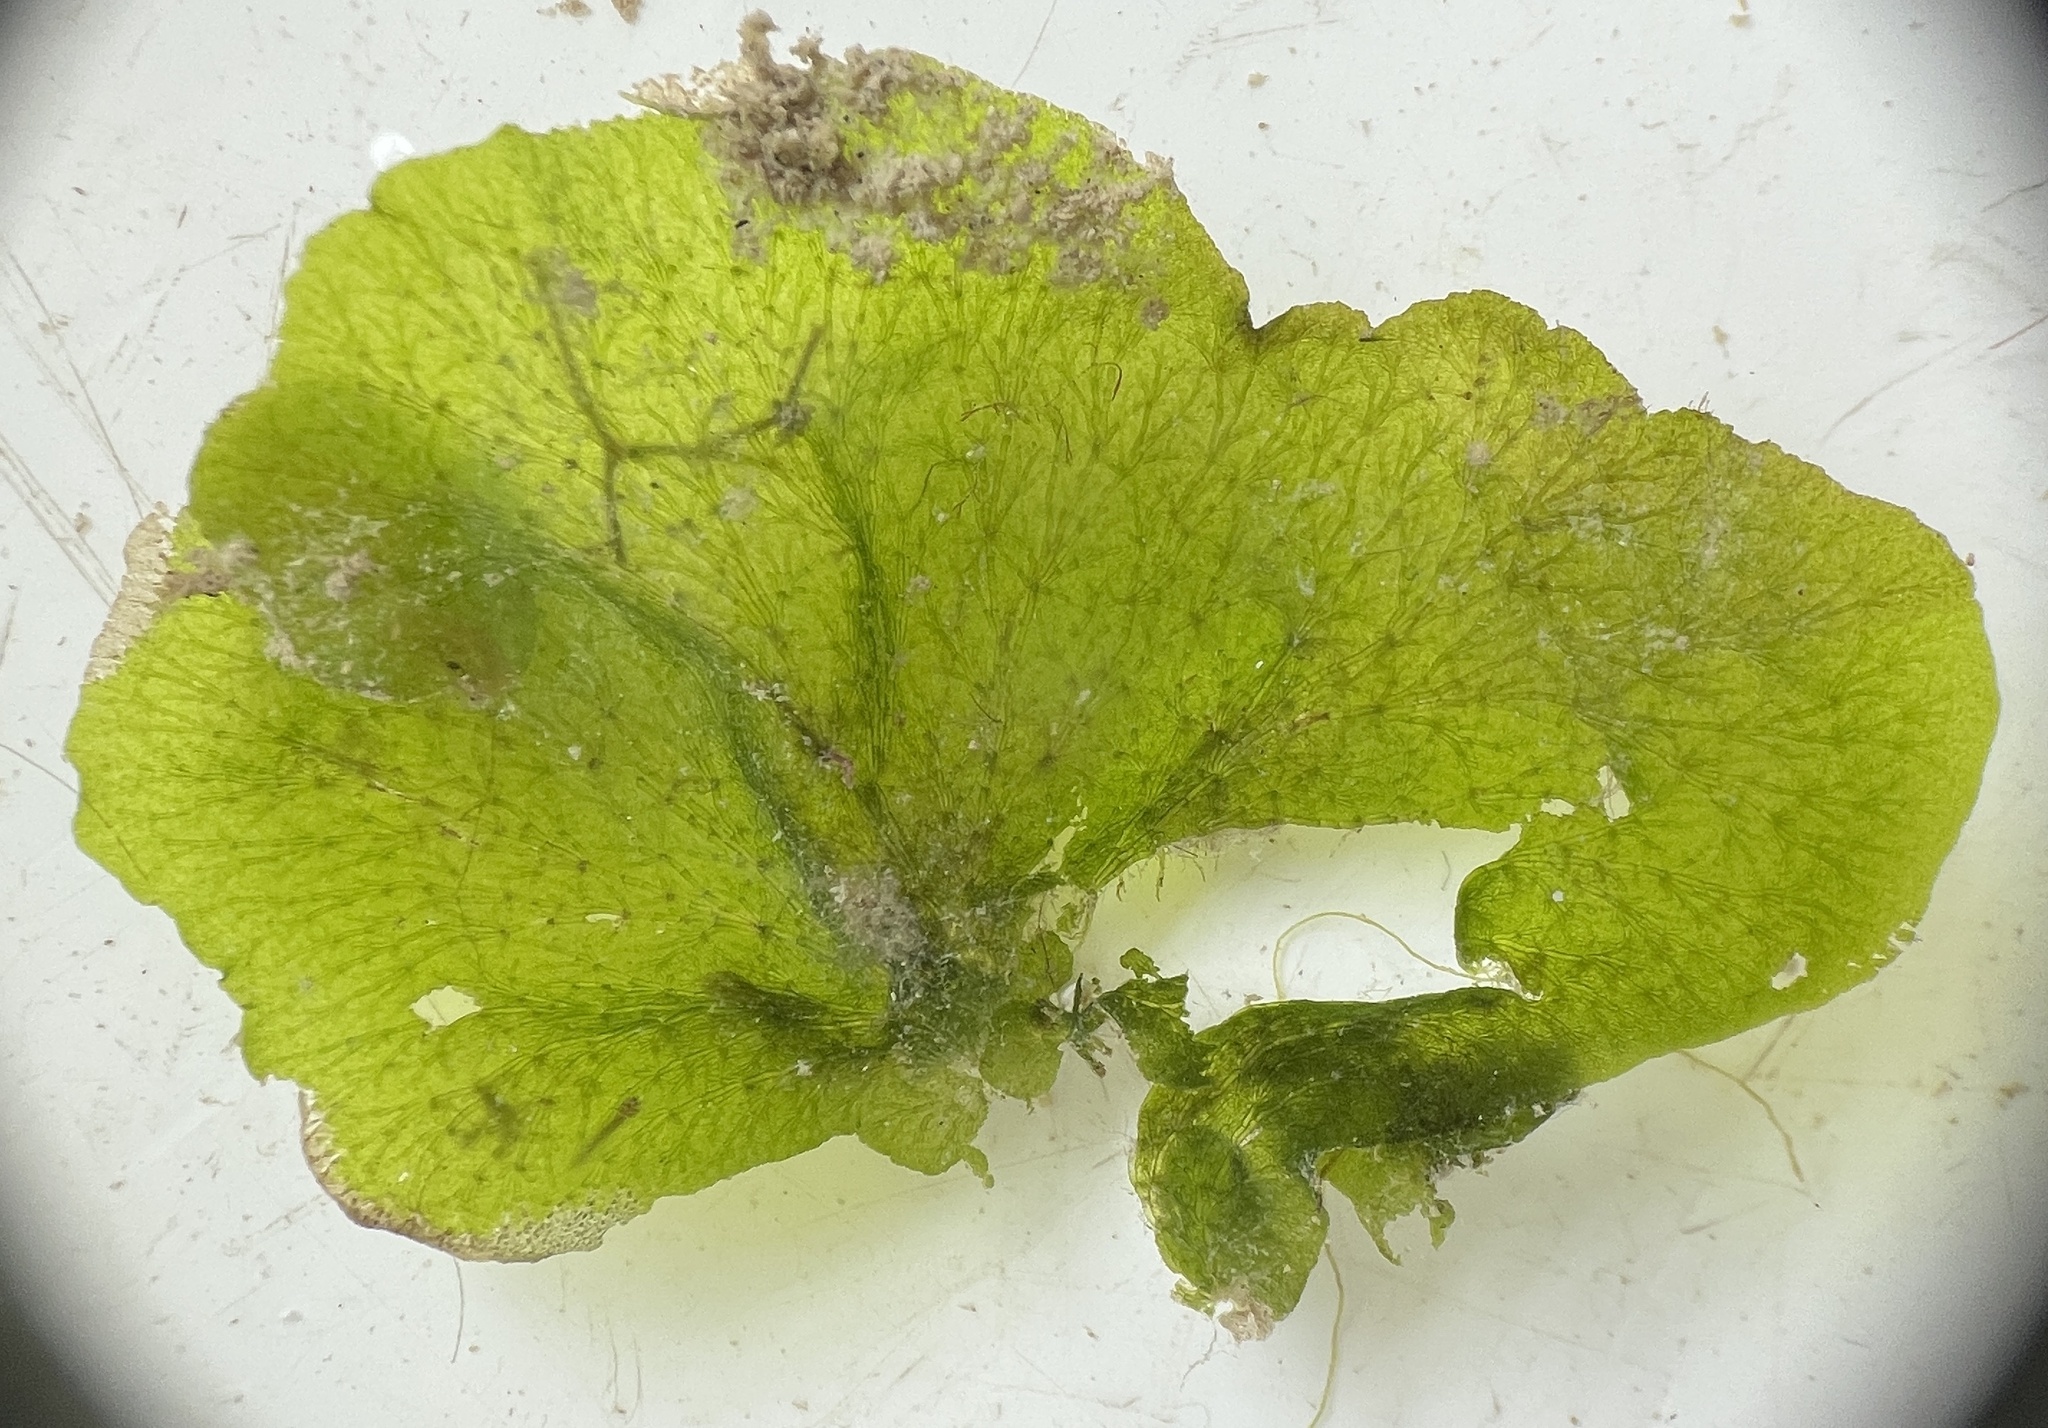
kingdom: Plantae
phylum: Chlorophyta
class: Ulvophyceae
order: Cladophorales
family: Anadyomenaceae
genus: Anadyomene
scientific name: Anadyomene stellata
